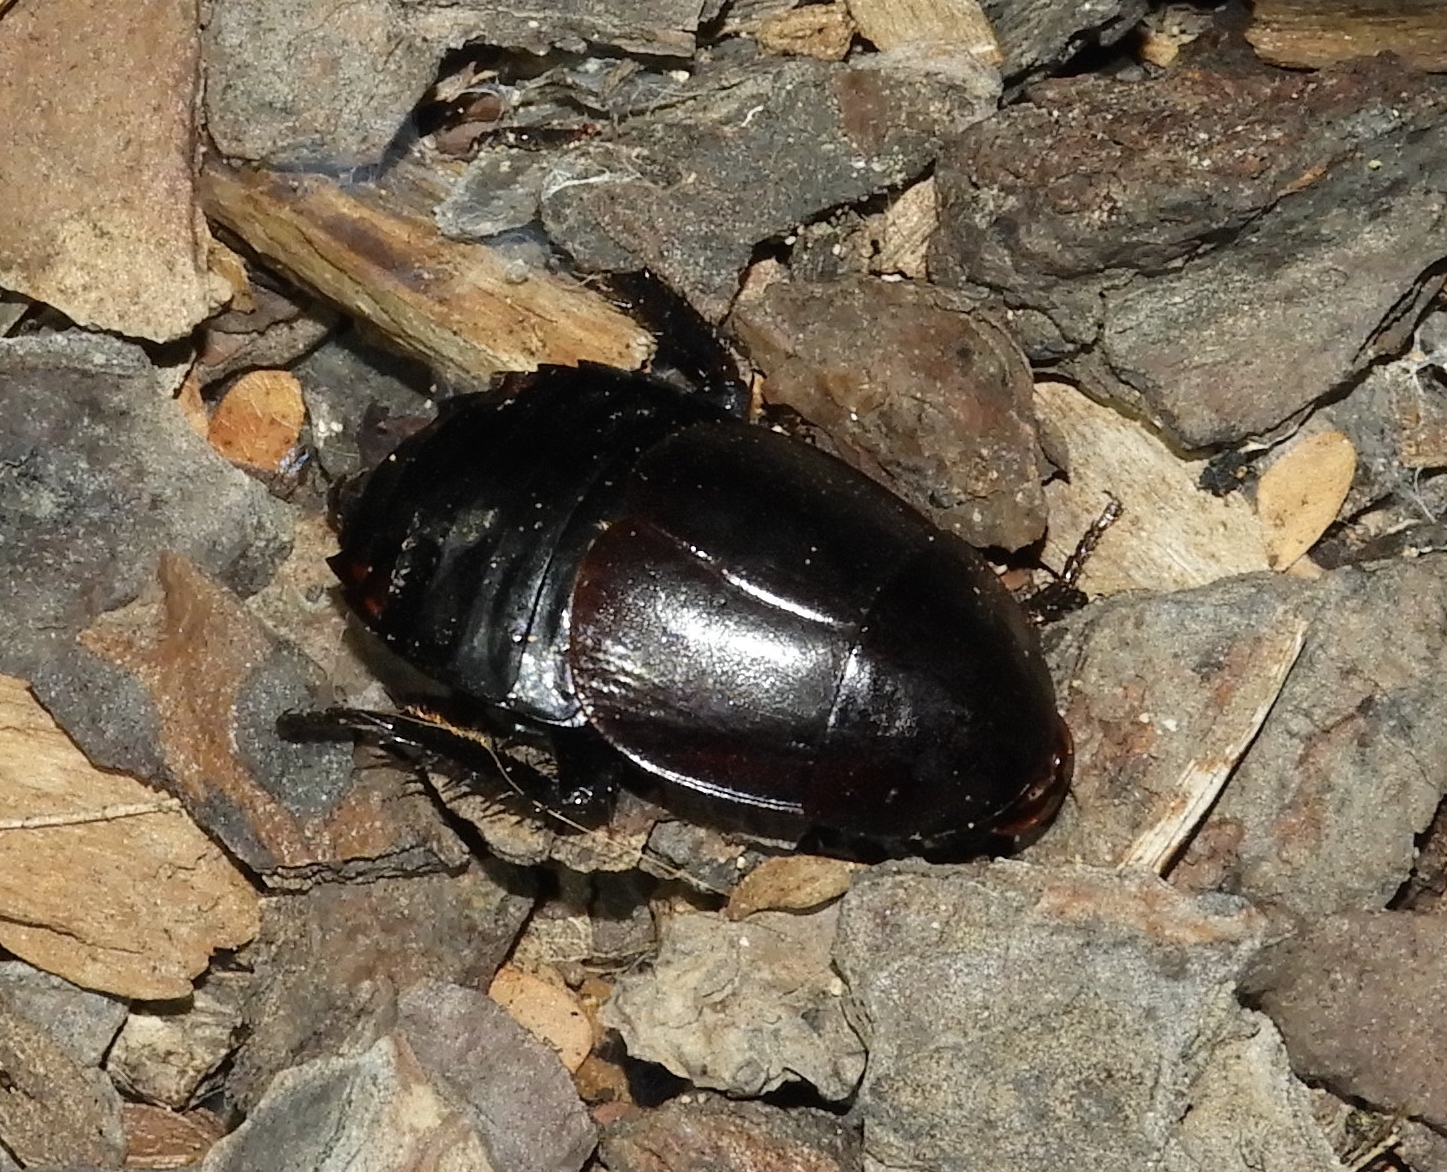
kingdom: Animalia
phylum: Arthropoda
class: Insecta
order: Blattodea
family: Ectobiidae
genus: Nyctibora
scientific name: Nyctibora tetrasticta
